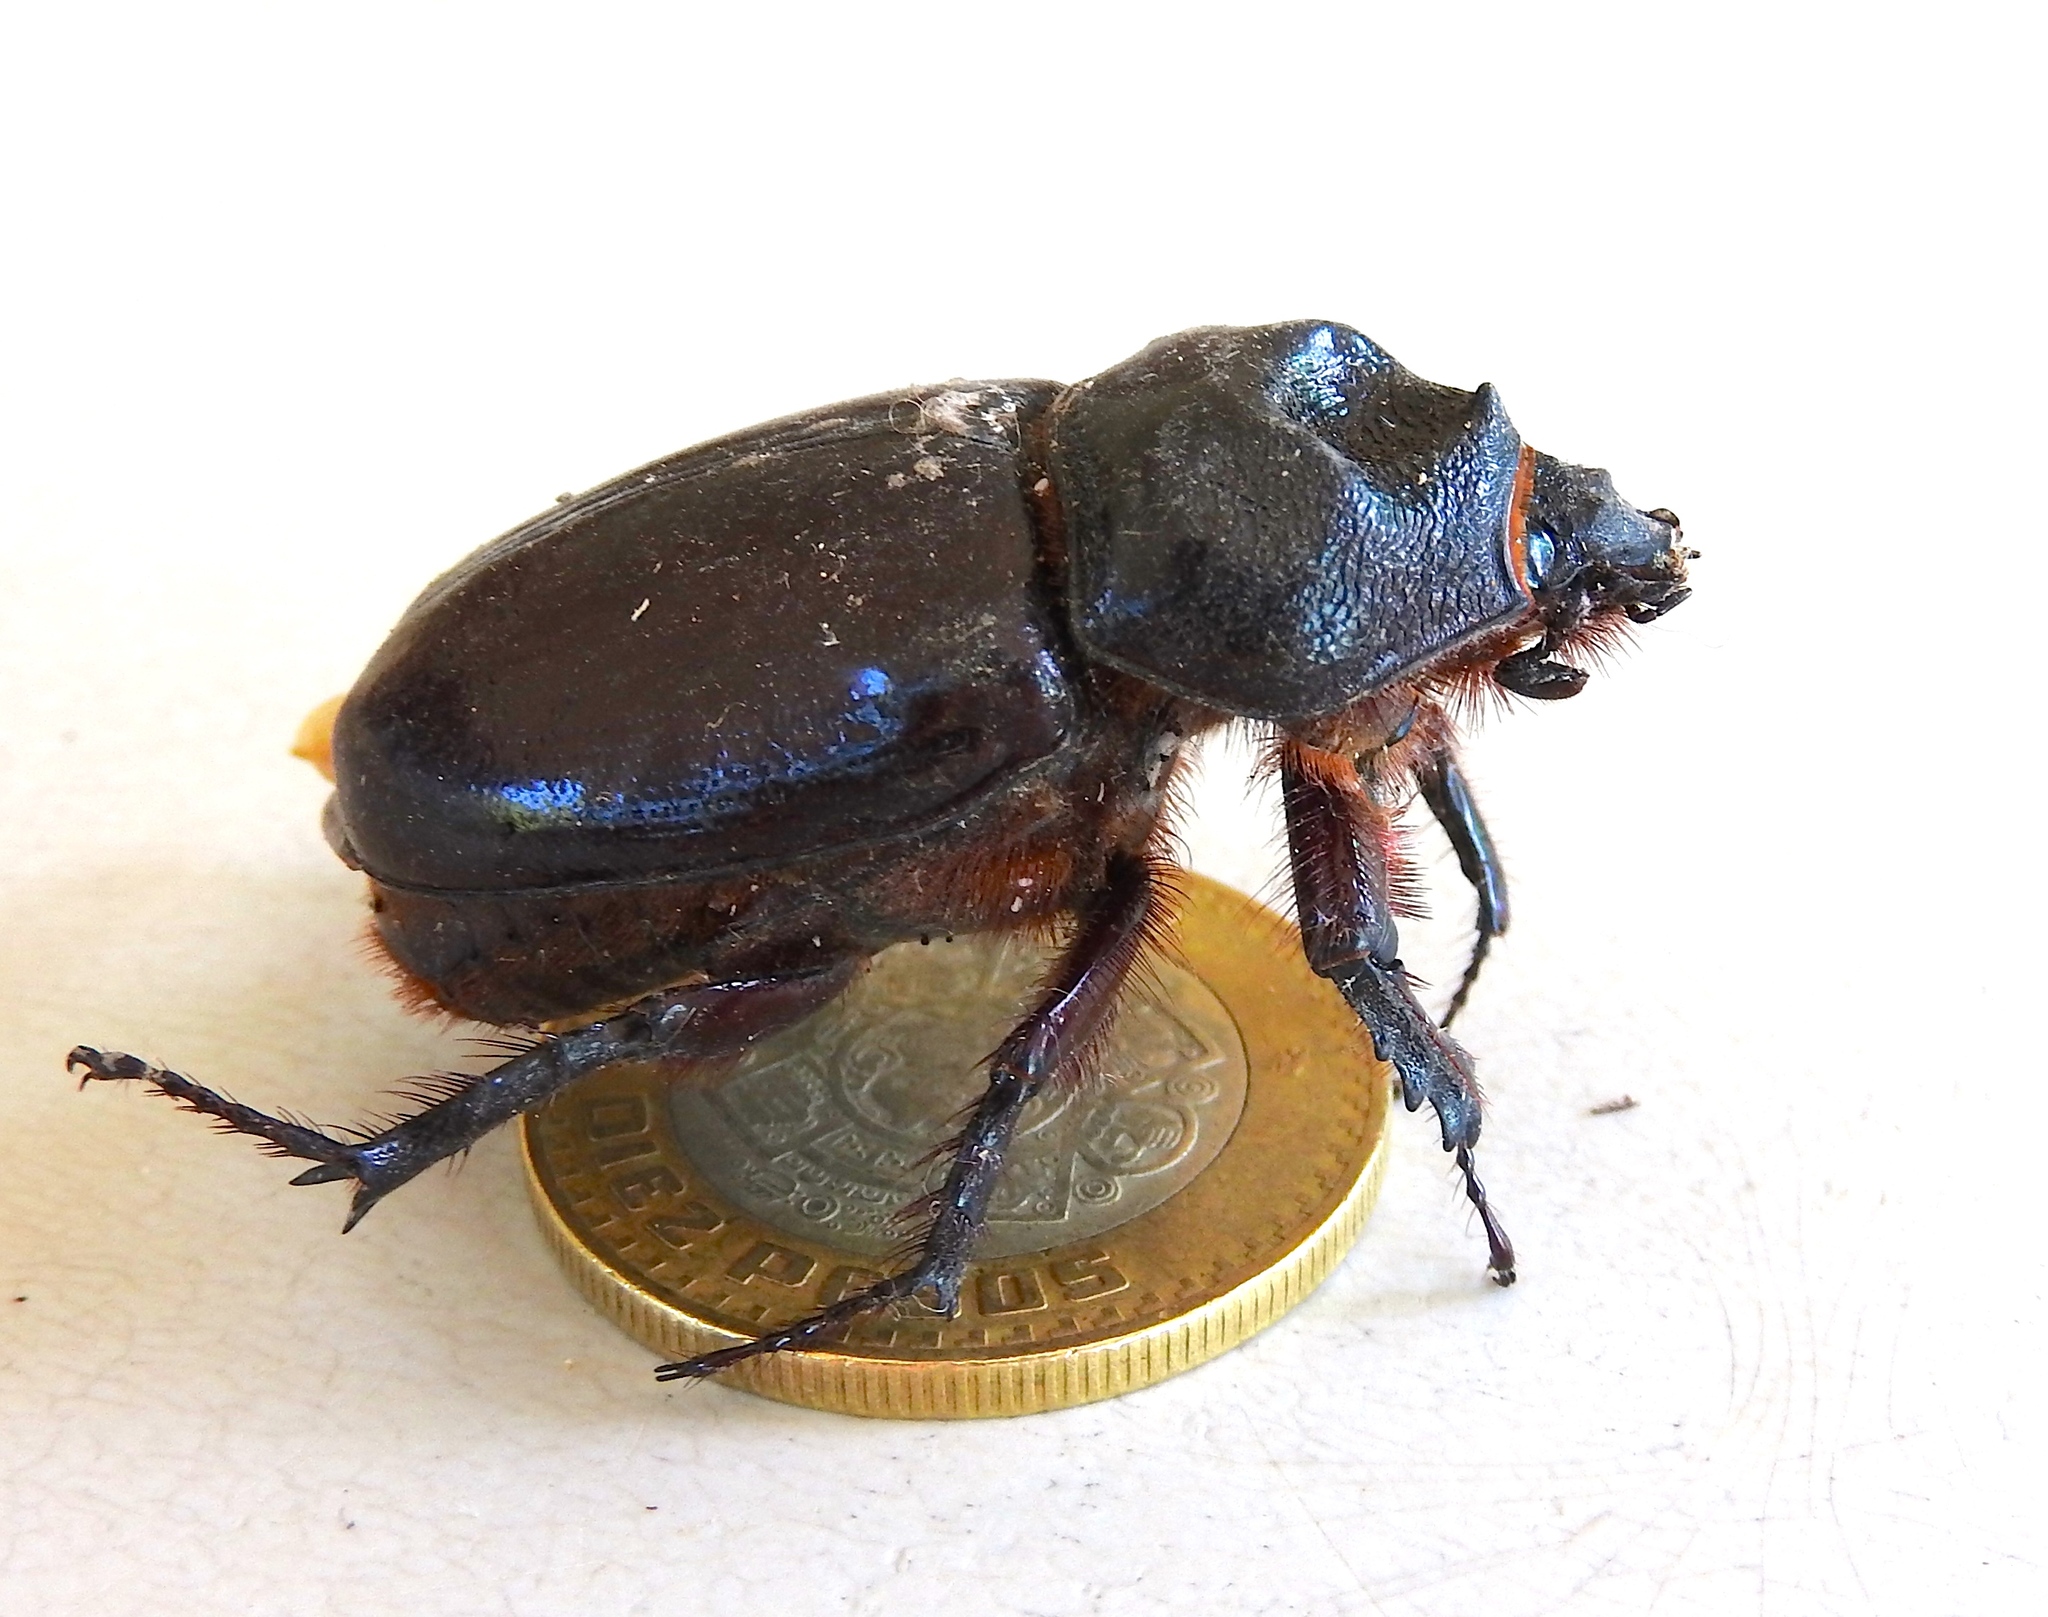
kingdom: Animalia
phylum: Arthropoda
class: Insecta
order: Coleoptera
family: Scarabaeidae
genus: Strategus
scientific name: Strategus
